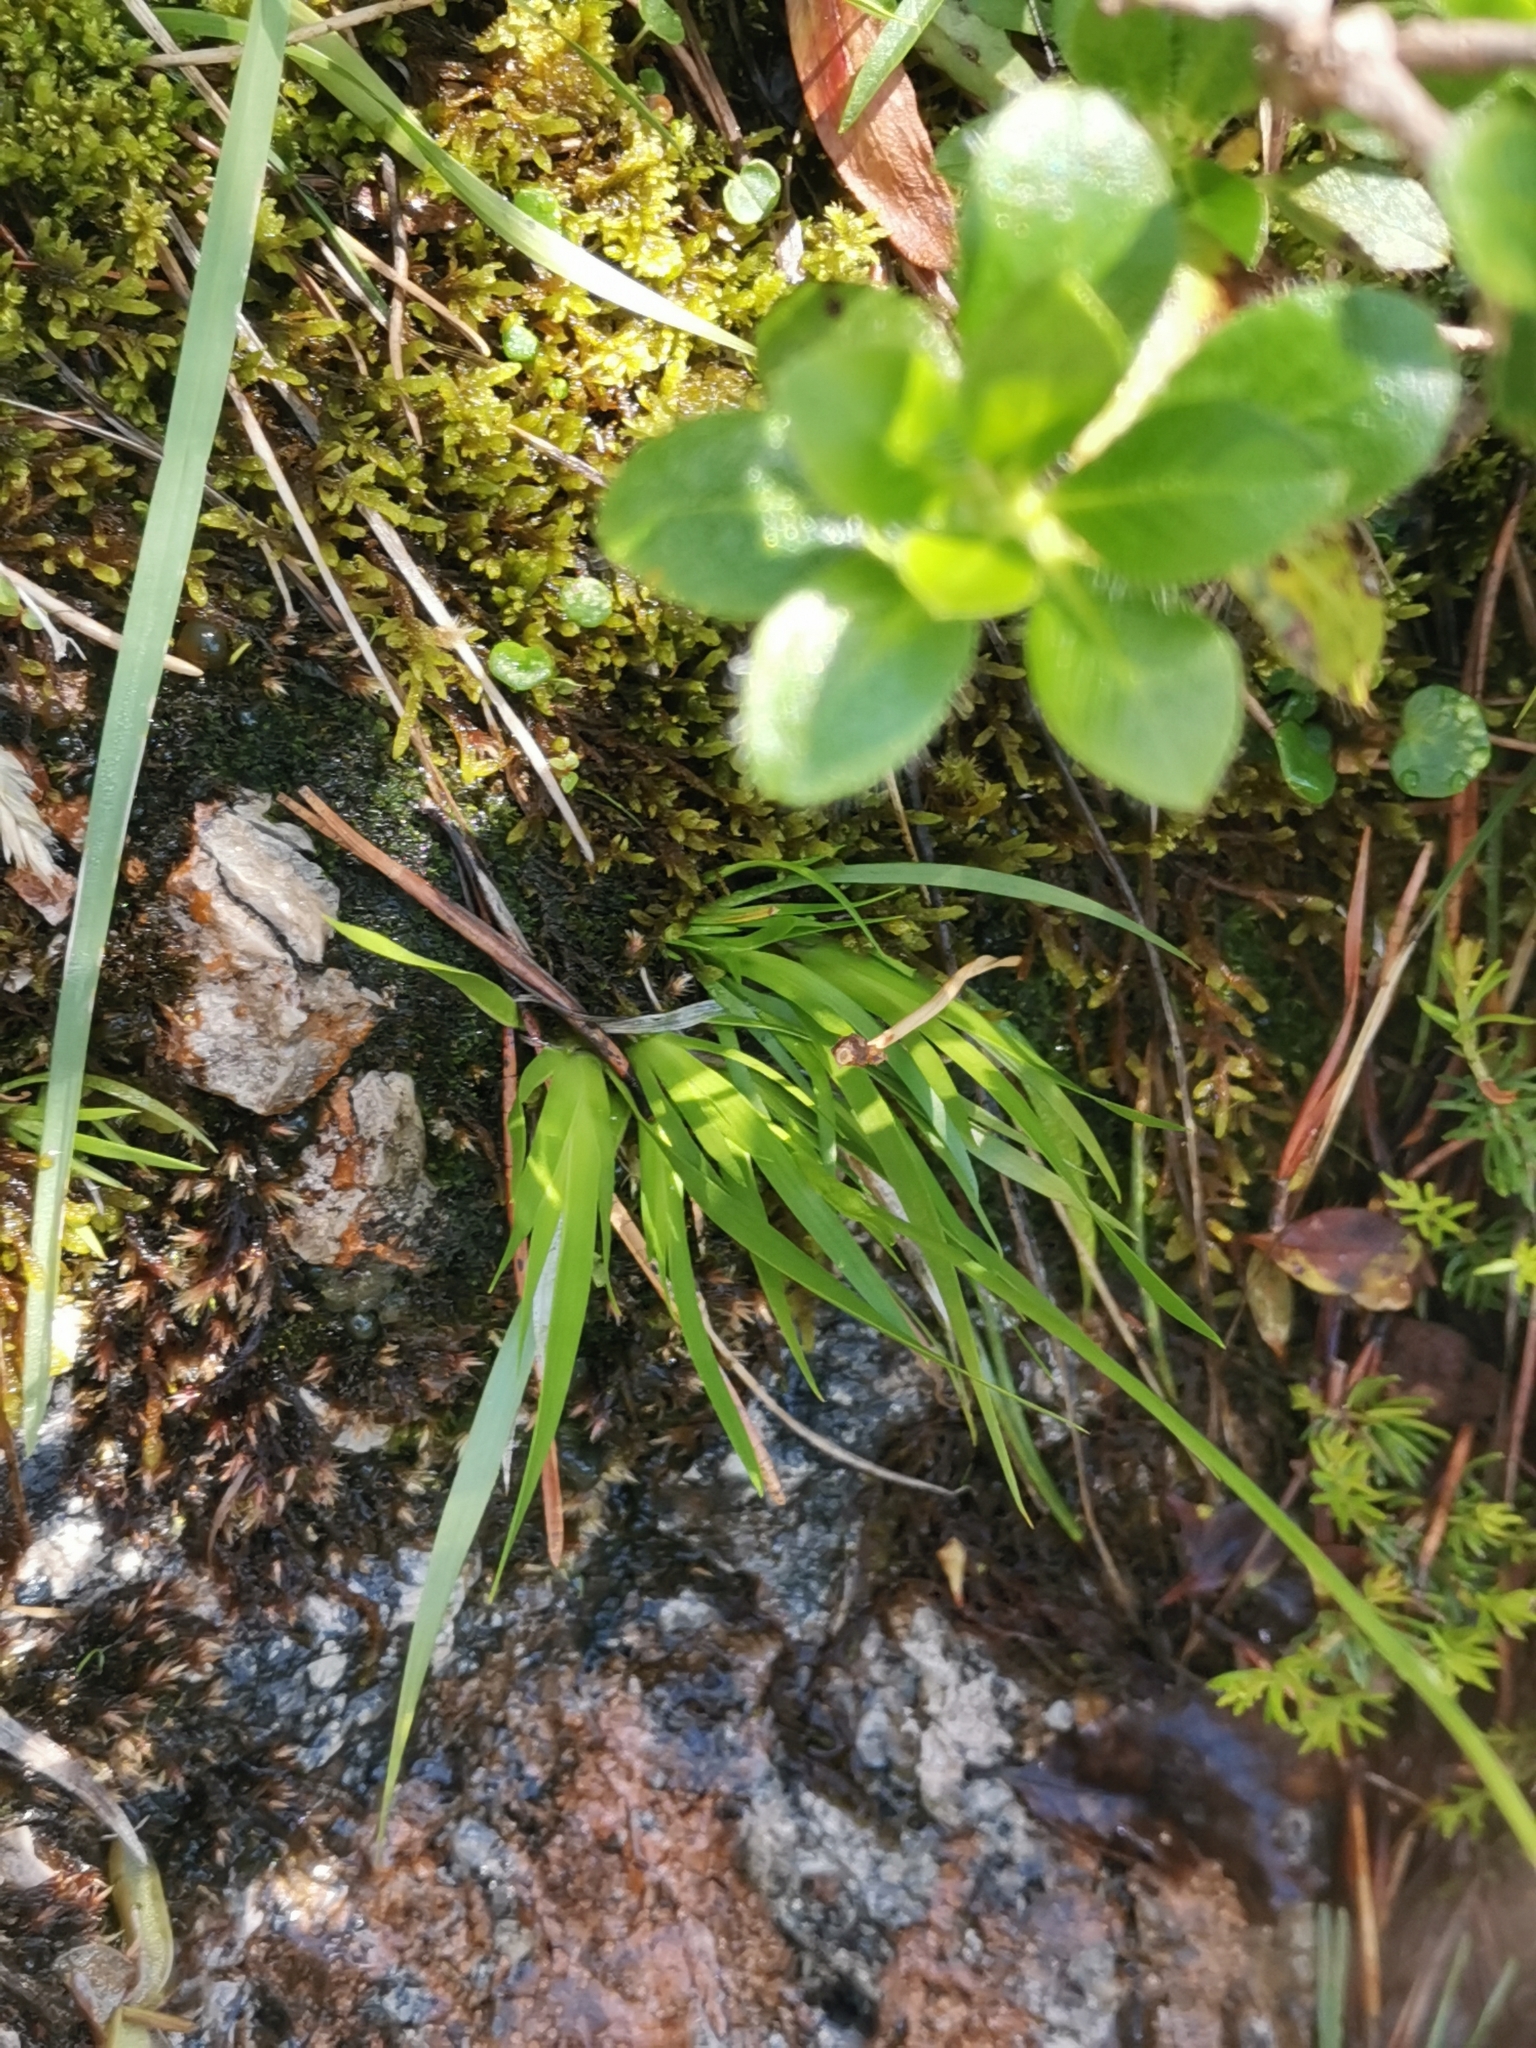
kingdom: Plantae
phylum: Tracheophyta
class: Liliopsida
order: Alismatales
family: Tofieldiaceae
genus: Tofieldia
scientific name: Tofieldia calyculata
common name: German-asphodel
